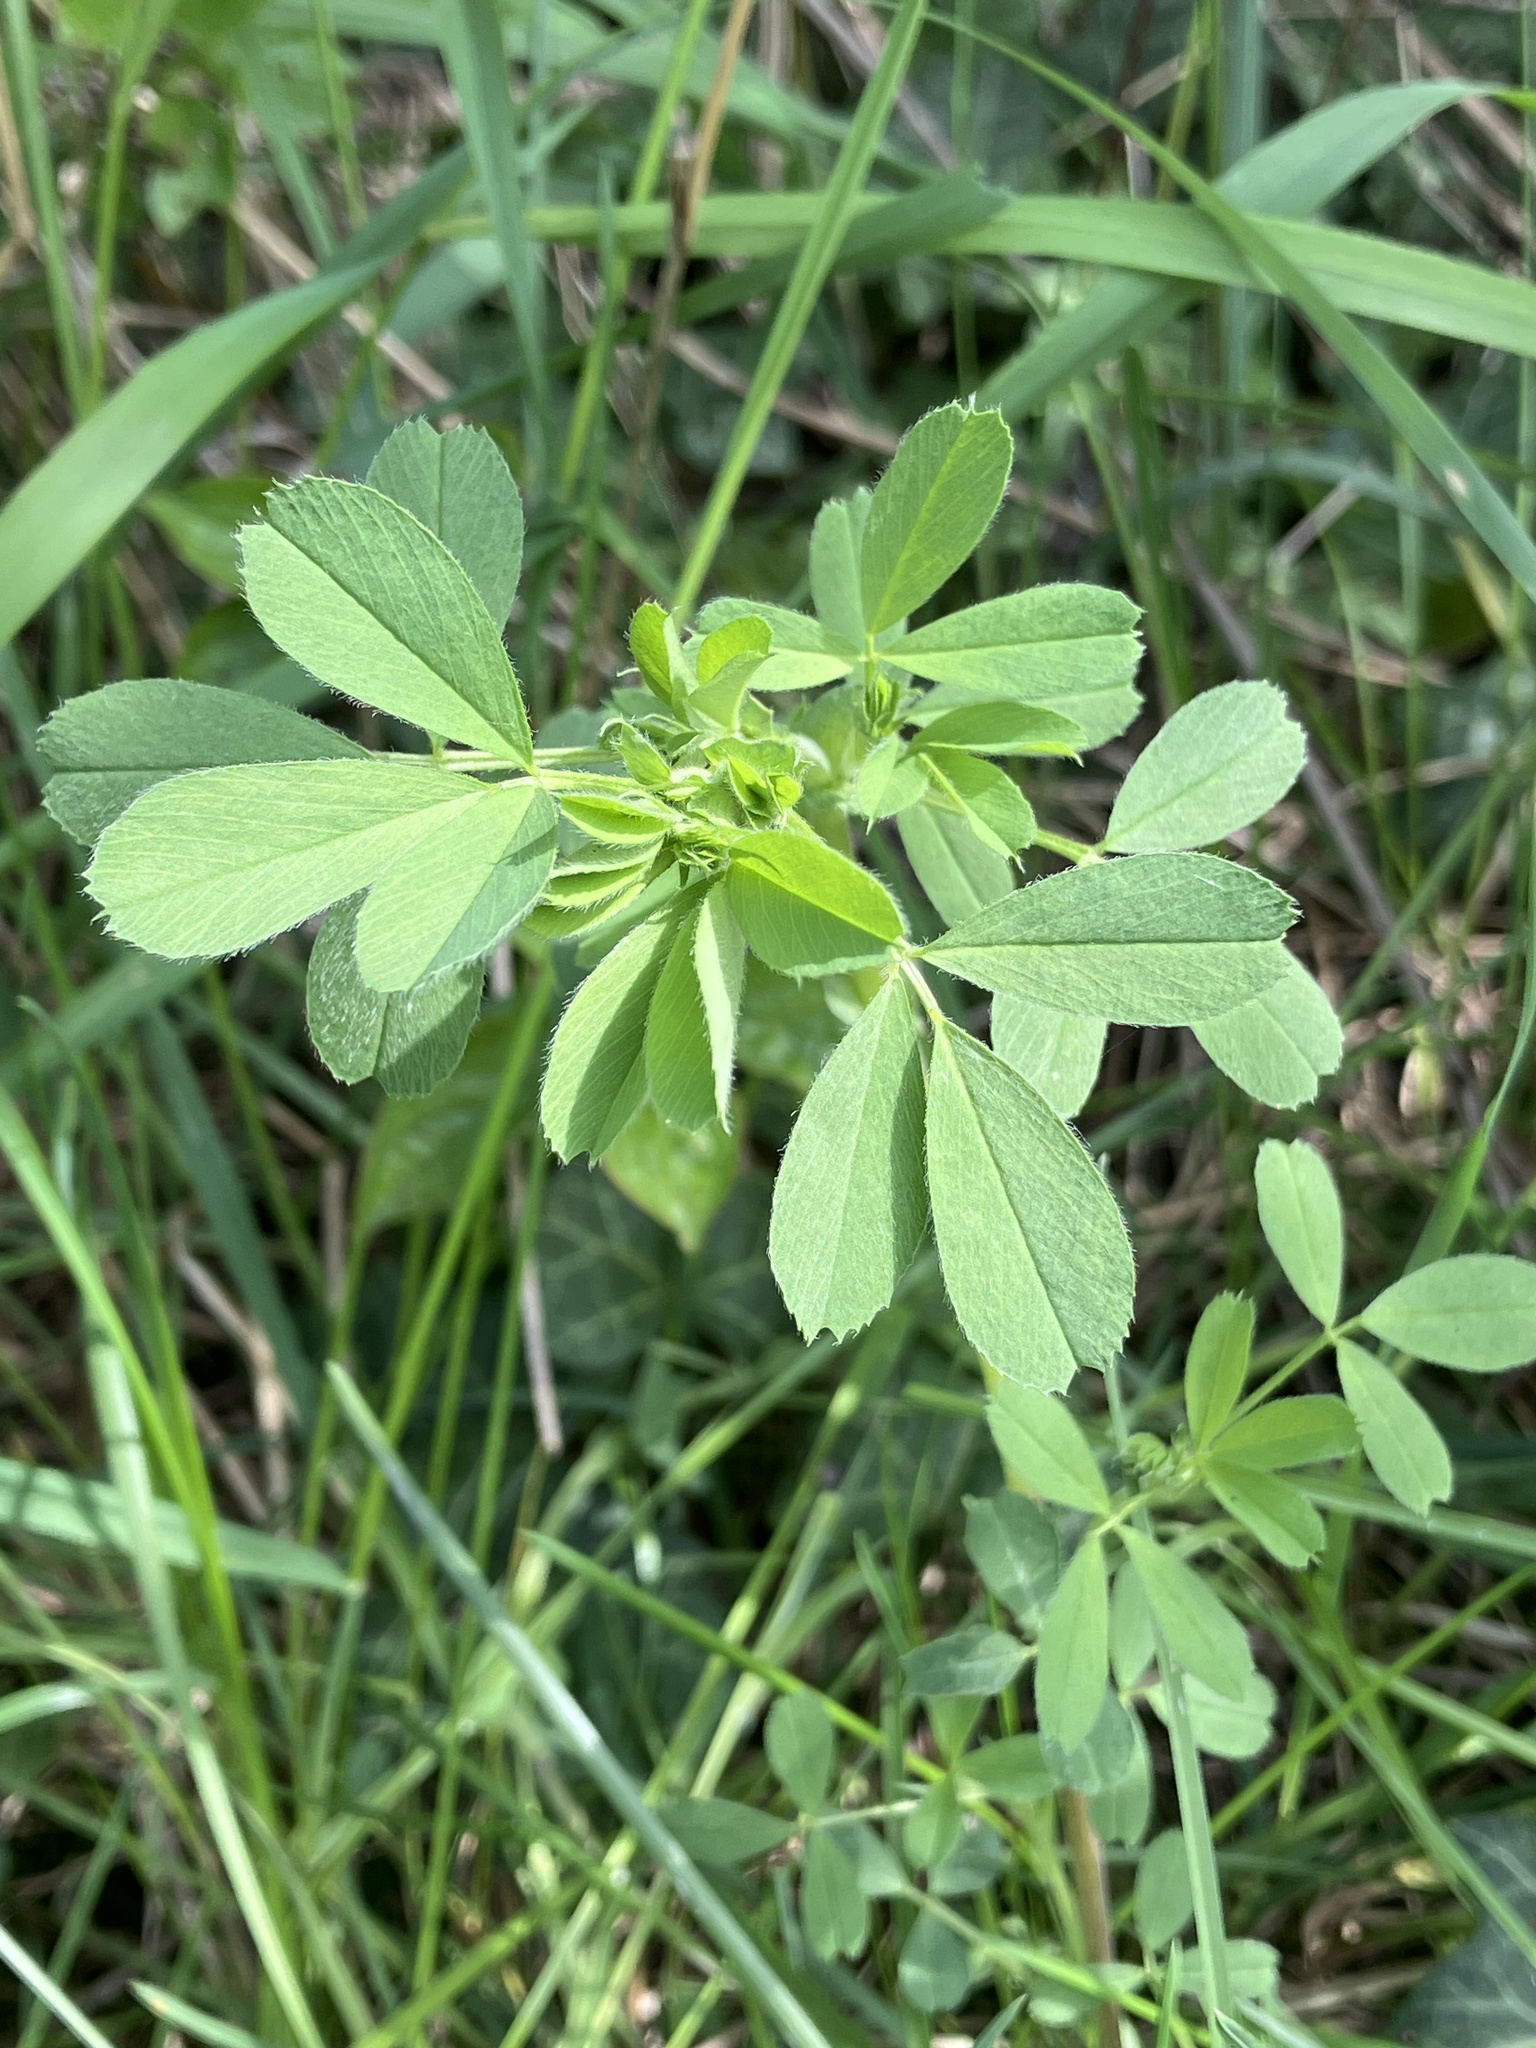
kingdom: Plantae
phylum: Tracheophyta
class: Magnoliopsida
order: Fabales
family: Fabaceae
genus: Medicago
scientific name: Medicago
